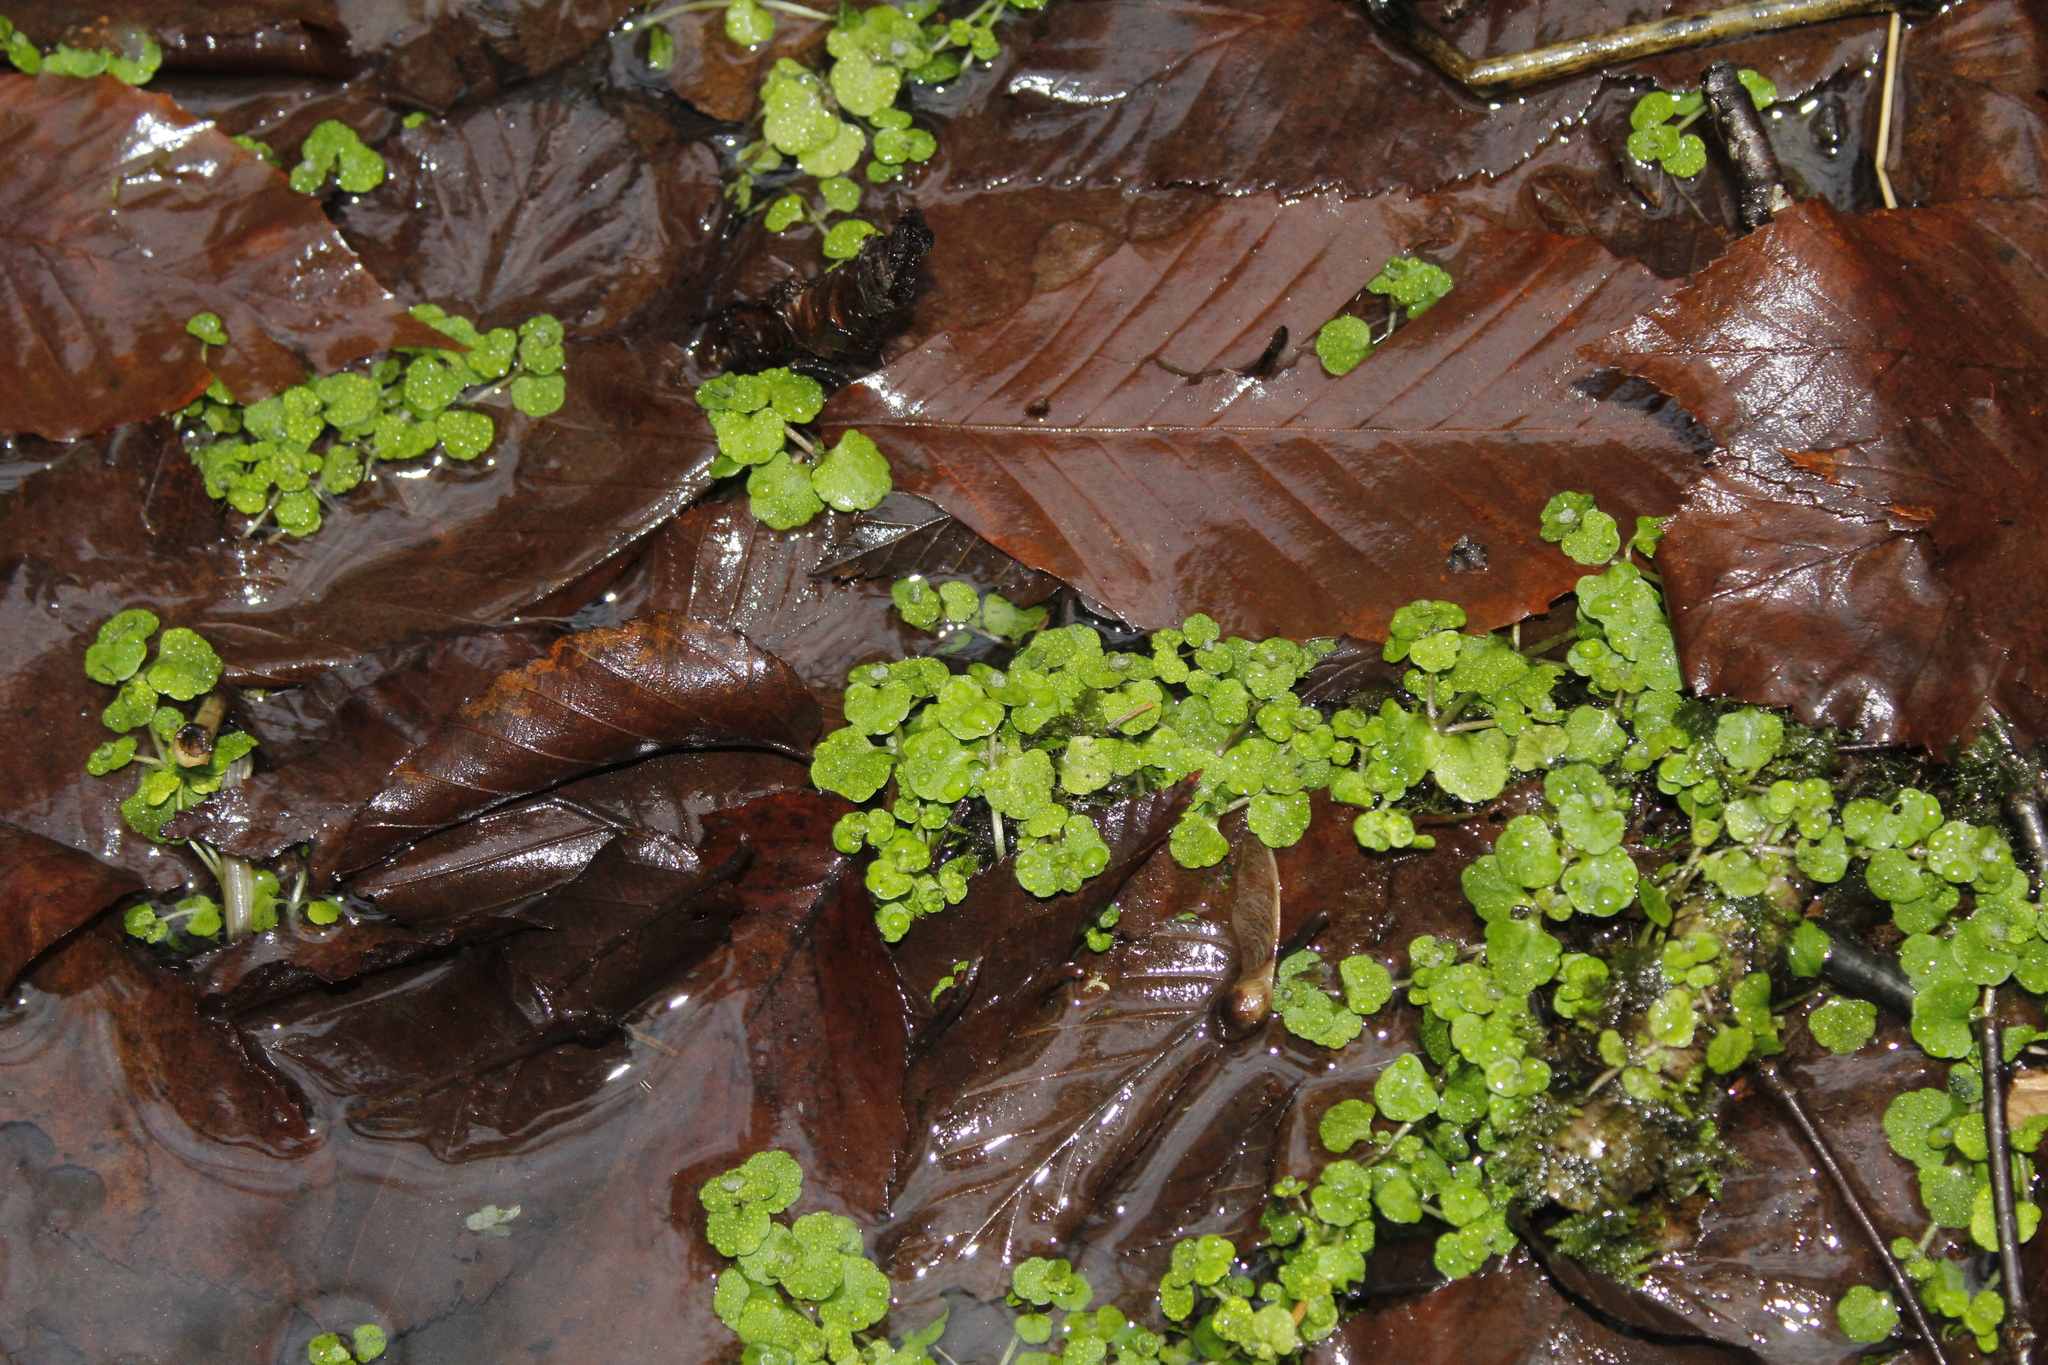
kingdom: Plantae
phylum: Tracheophyta
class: Magnoliopsida
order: Saxifragales
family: Saxifragaceae
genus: Chrysosplenium
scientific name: Chrysosplenium americanum
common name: American golden-saxifrage
